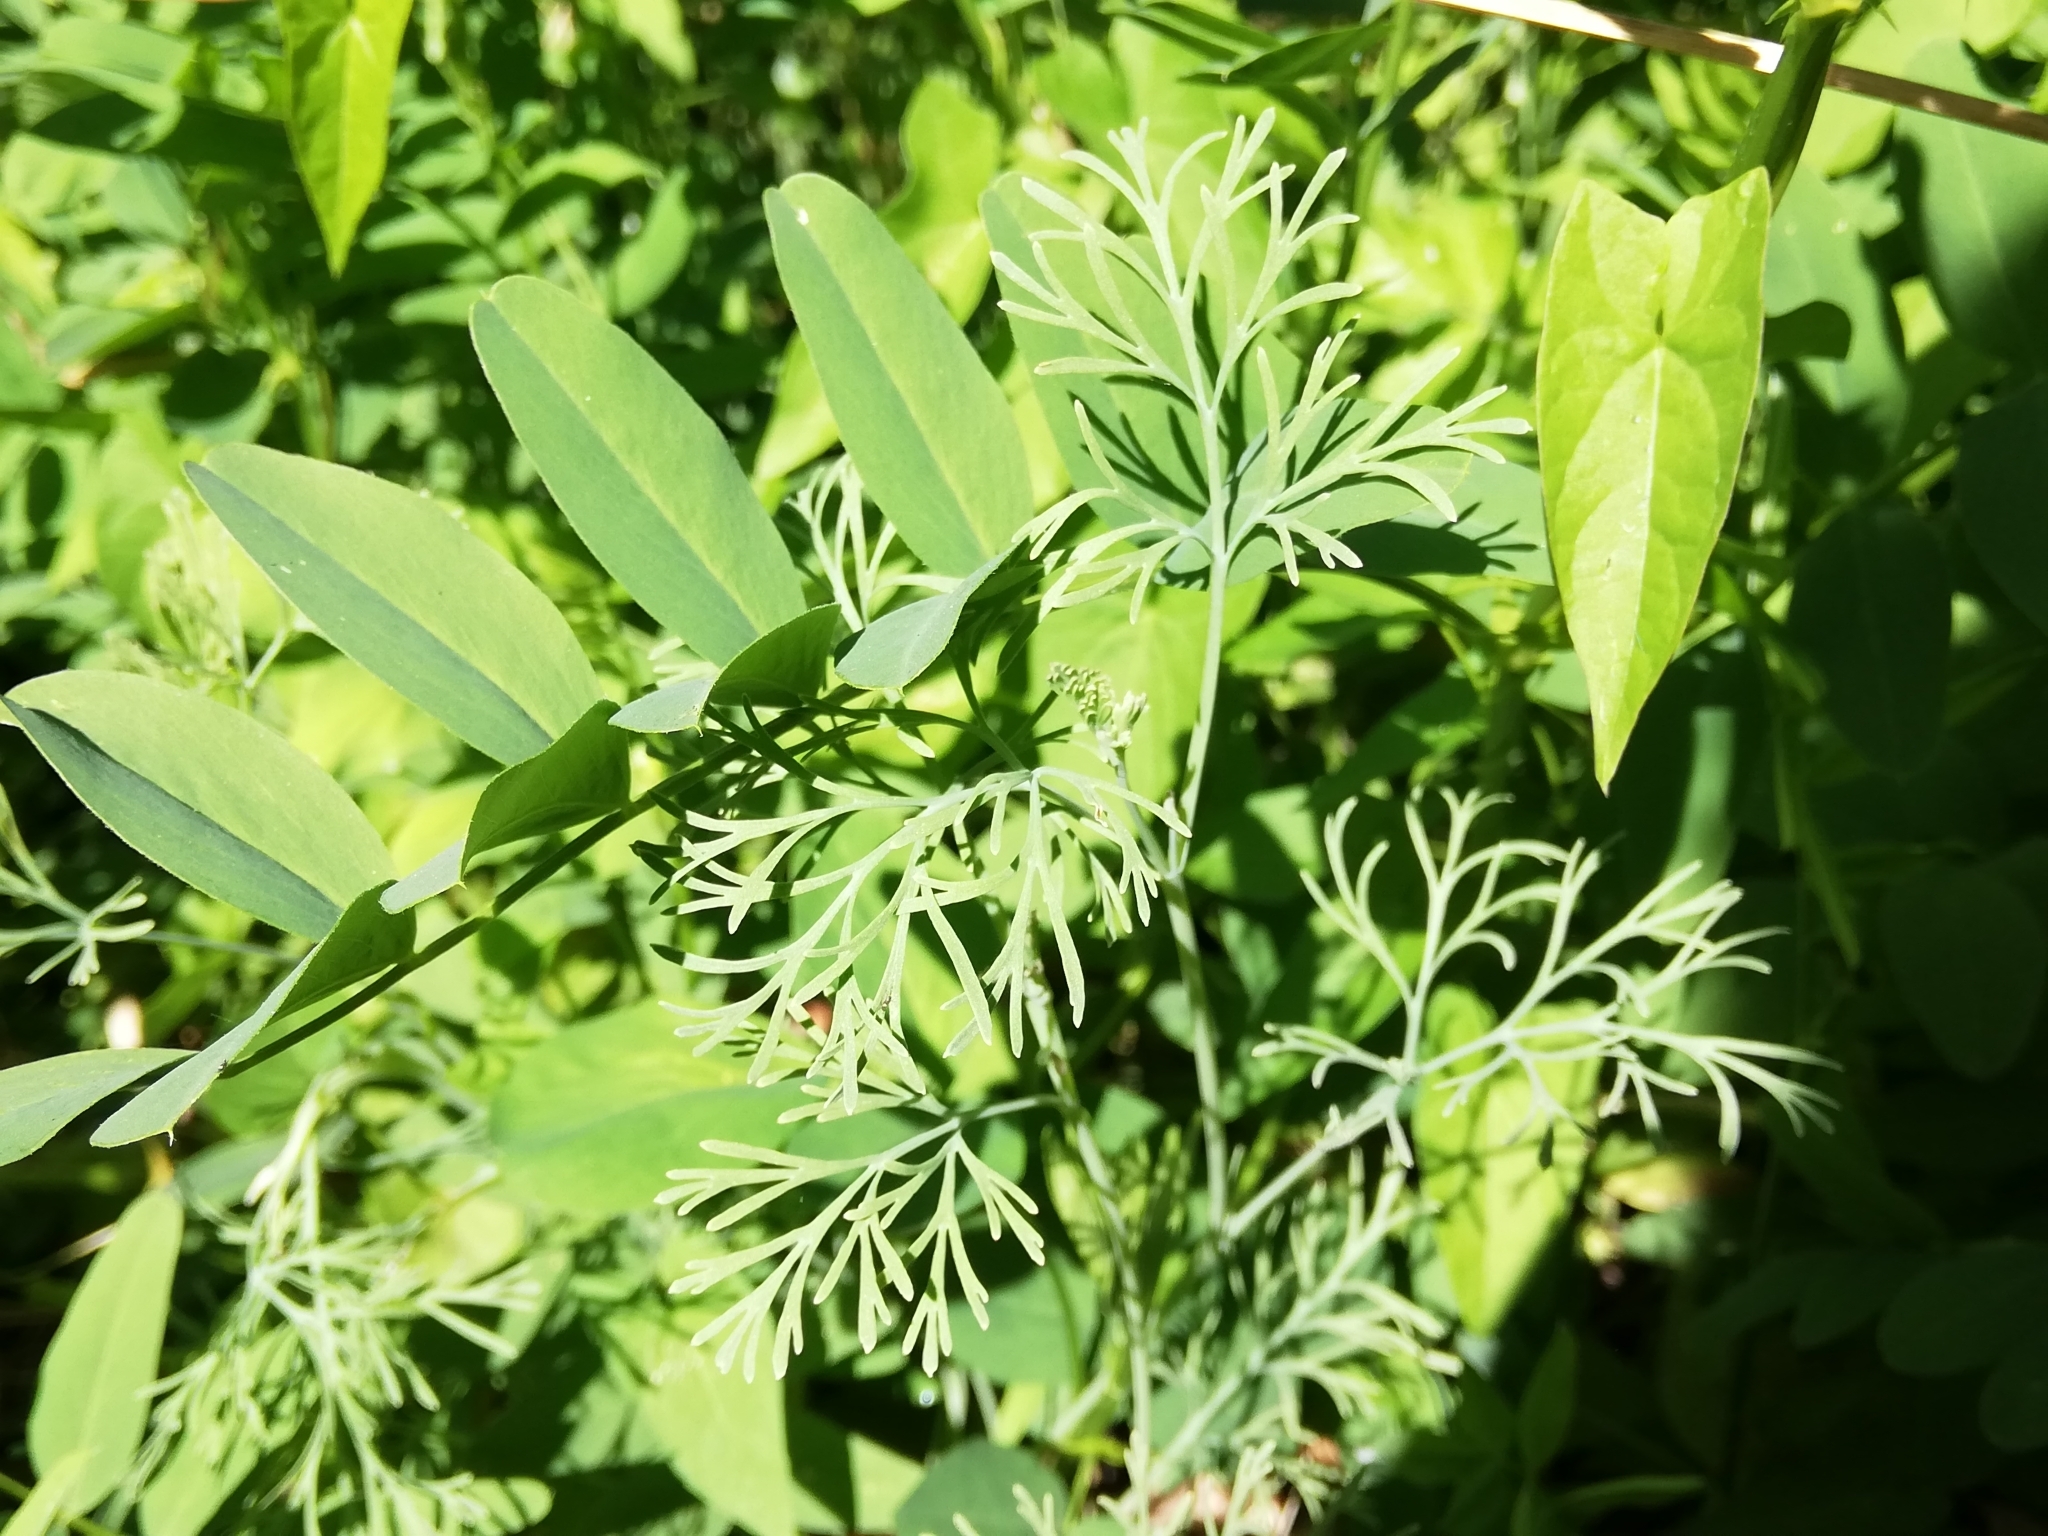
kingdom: Plantae
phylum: Tracheophyta
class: Magnoliopsida
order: Ranunculales
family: Papaveraceae
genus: Eschscholzia
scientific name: Eschscholzia californica
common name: California poppy
